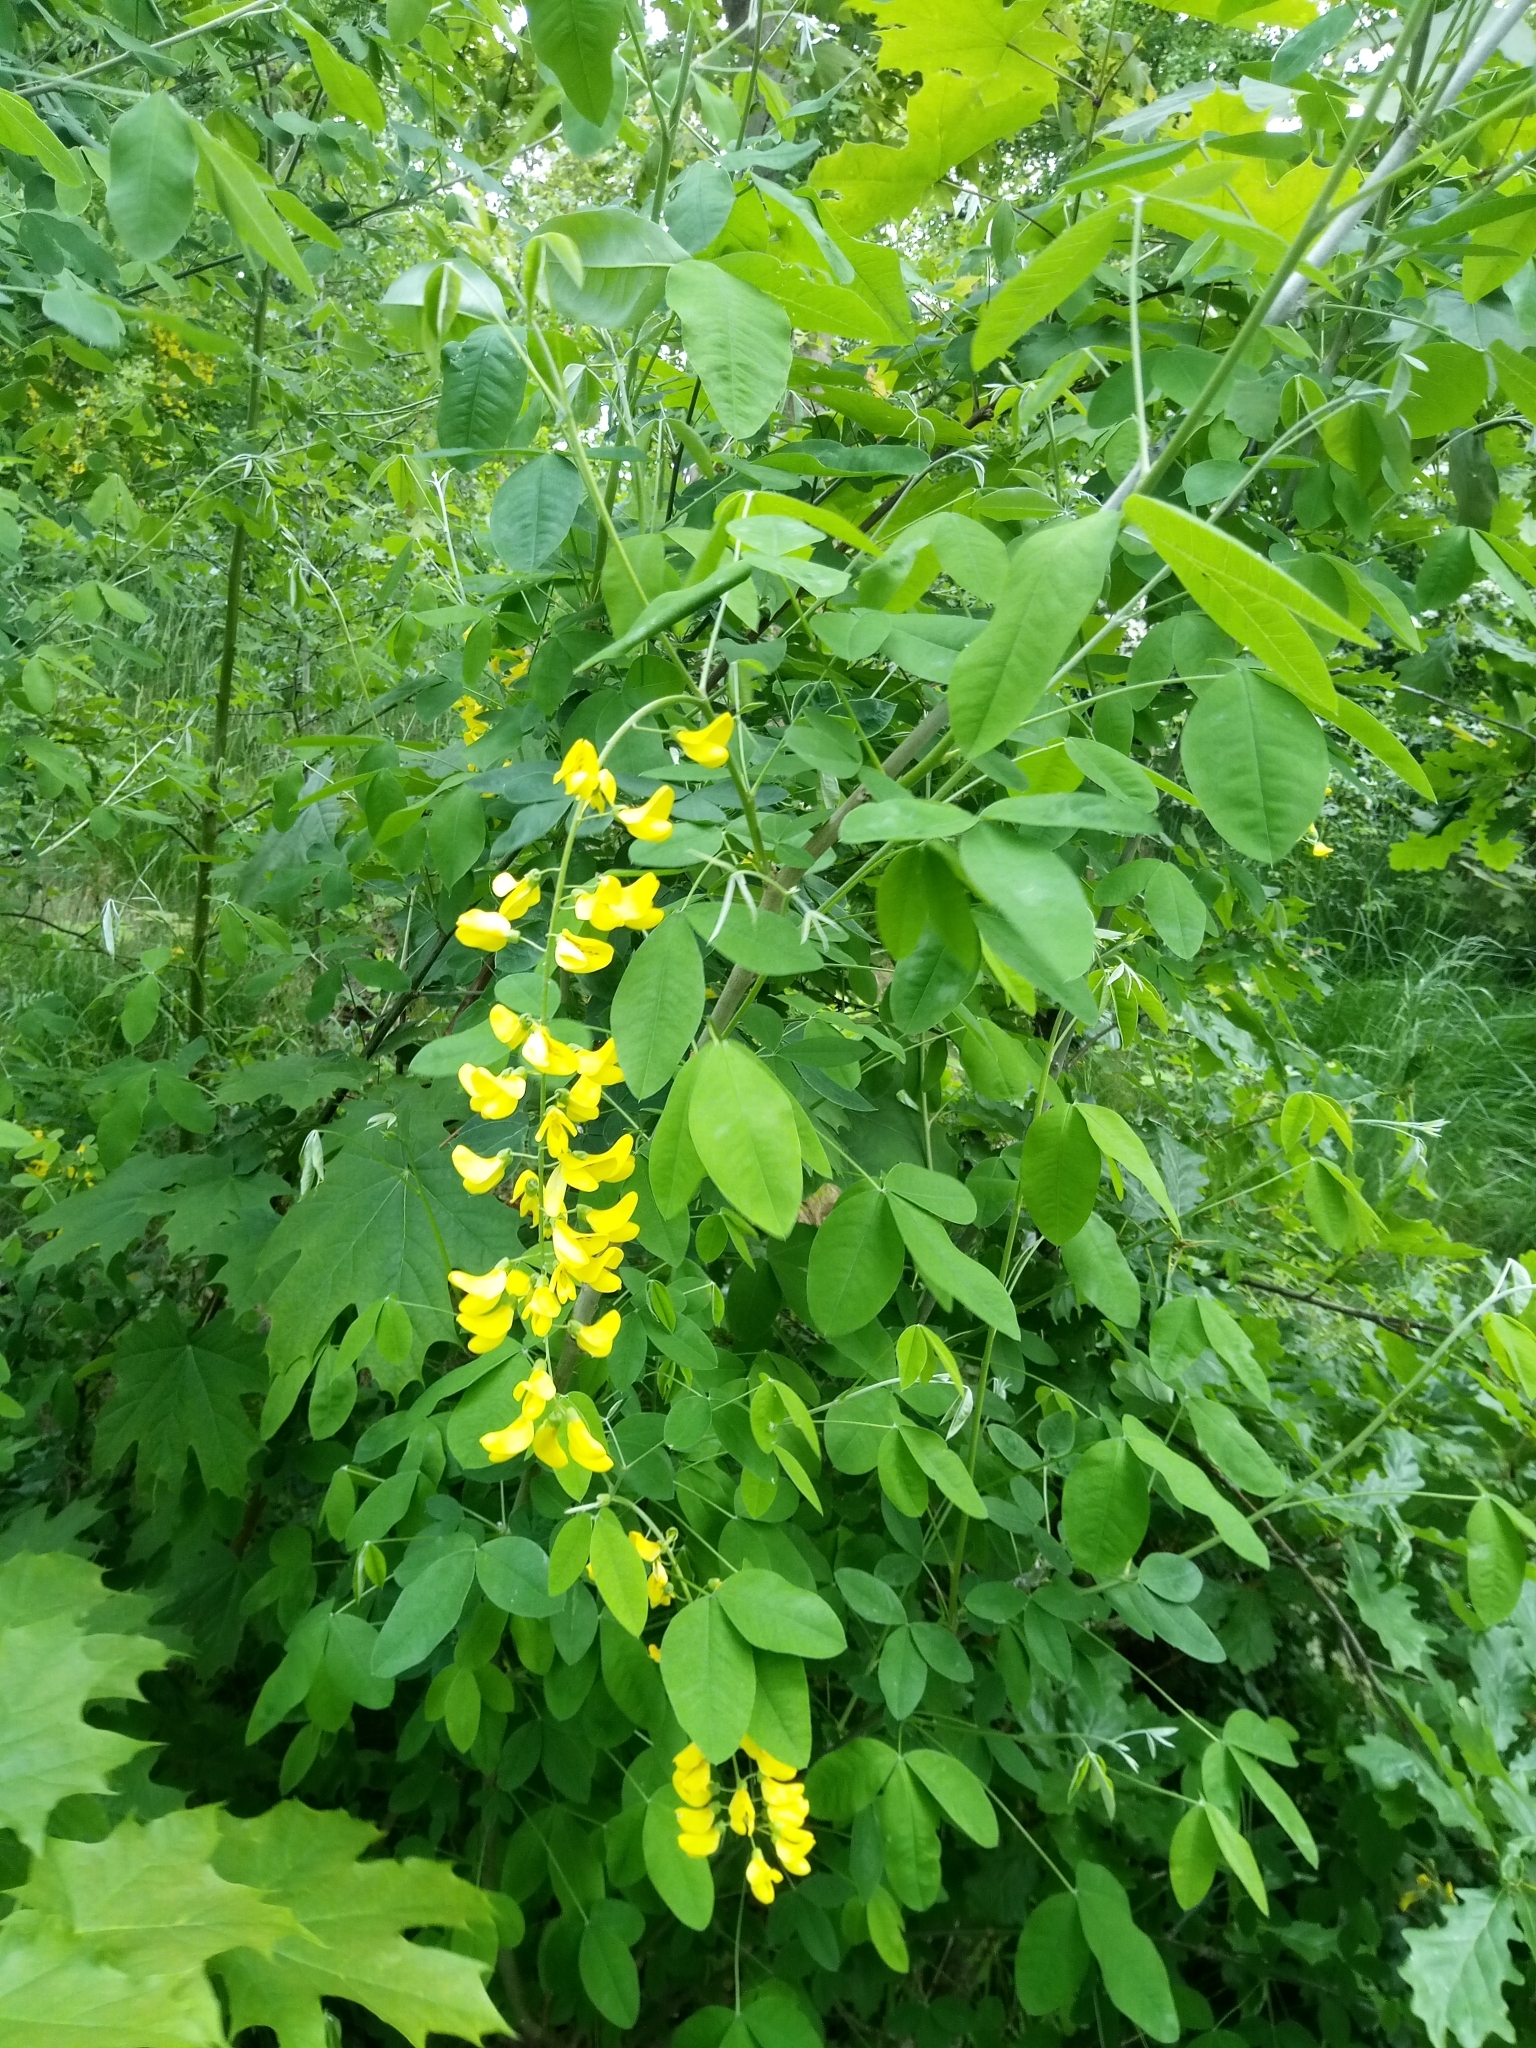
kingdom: Plantae
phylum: Tracheophyta
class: Magnoliopsida
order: Fabales
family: Fabaceae
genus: Laburnum
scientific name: Laburnum anagyroides
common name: Laburnum
